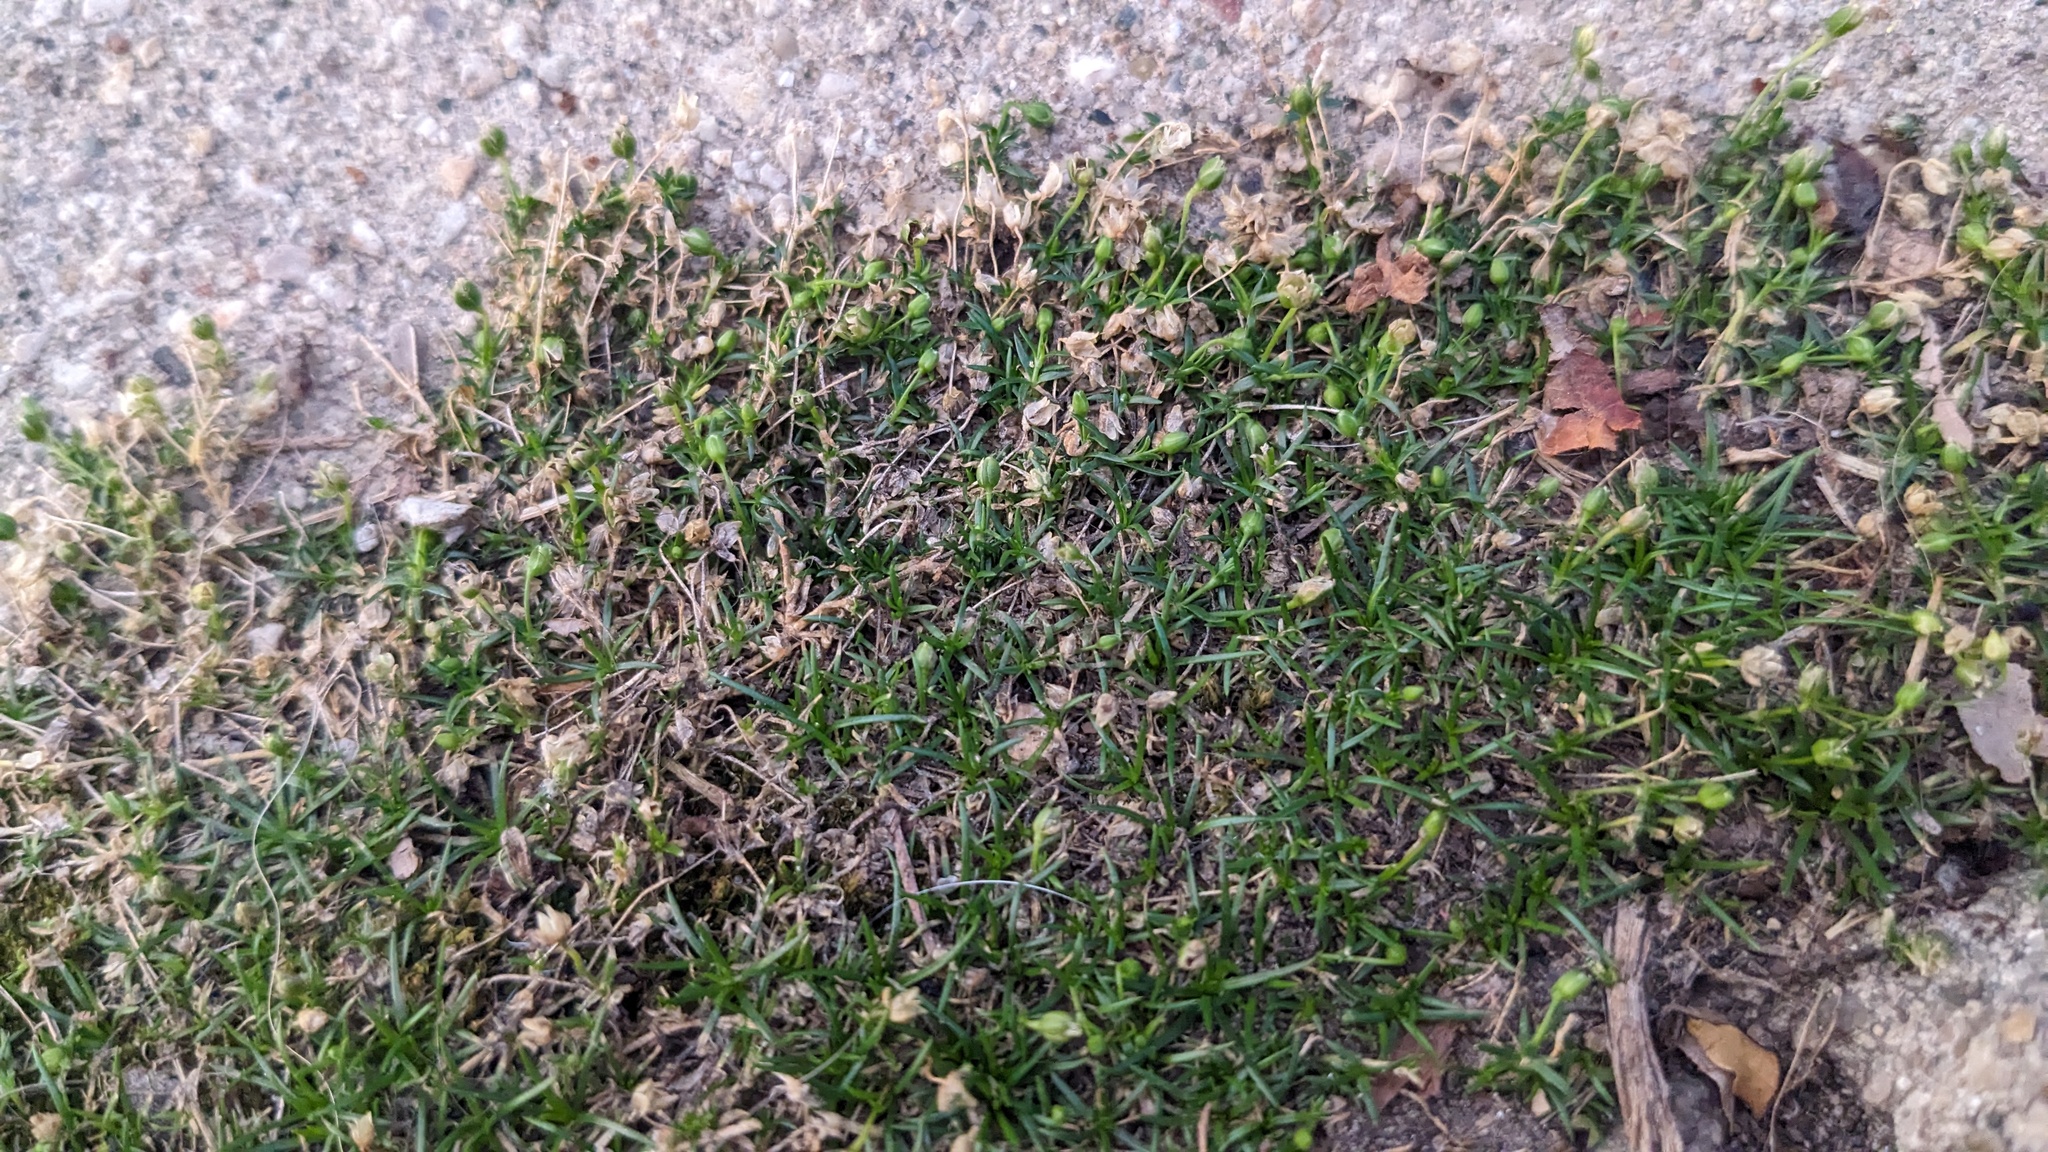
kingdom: Plantae
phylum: Tracheophyta
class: Magnoliopsida
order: Caryophyllales
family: Caryophyllaceae
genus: Sagina
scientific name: Sagina procumbens
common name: Procumbent pearlwort
